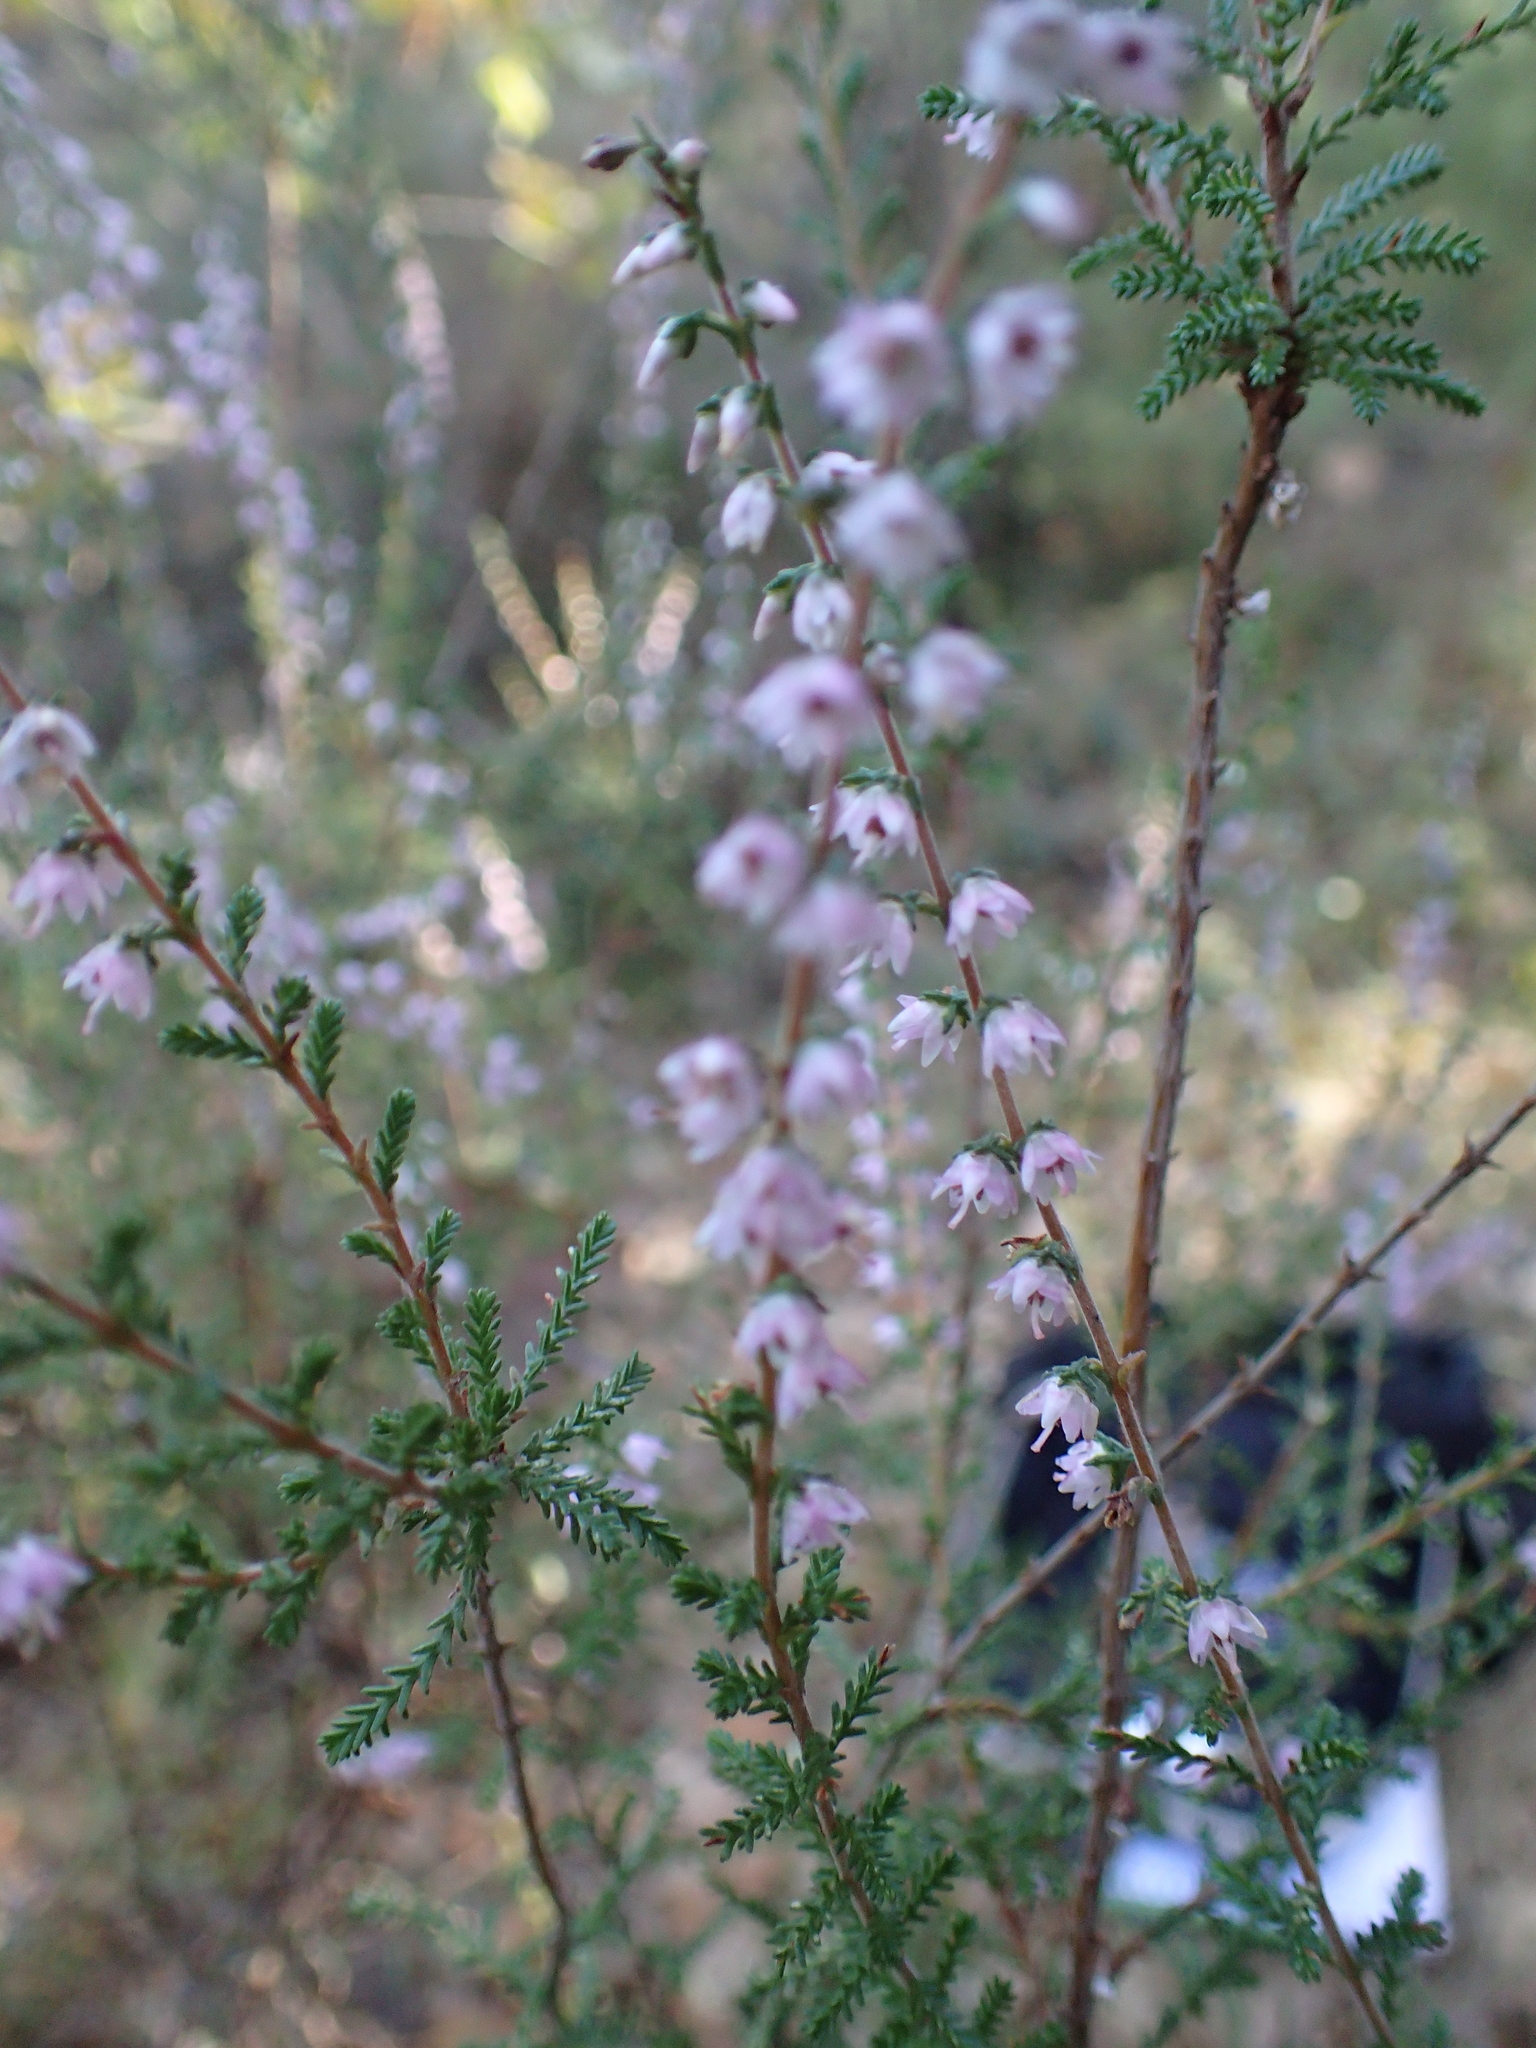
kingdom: Plantae
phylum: Tracheophyta
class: Magnoliopsida
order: Ericales
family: Ericaceae
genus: Calluna
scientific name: Calluna vulgaris
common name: Heather
